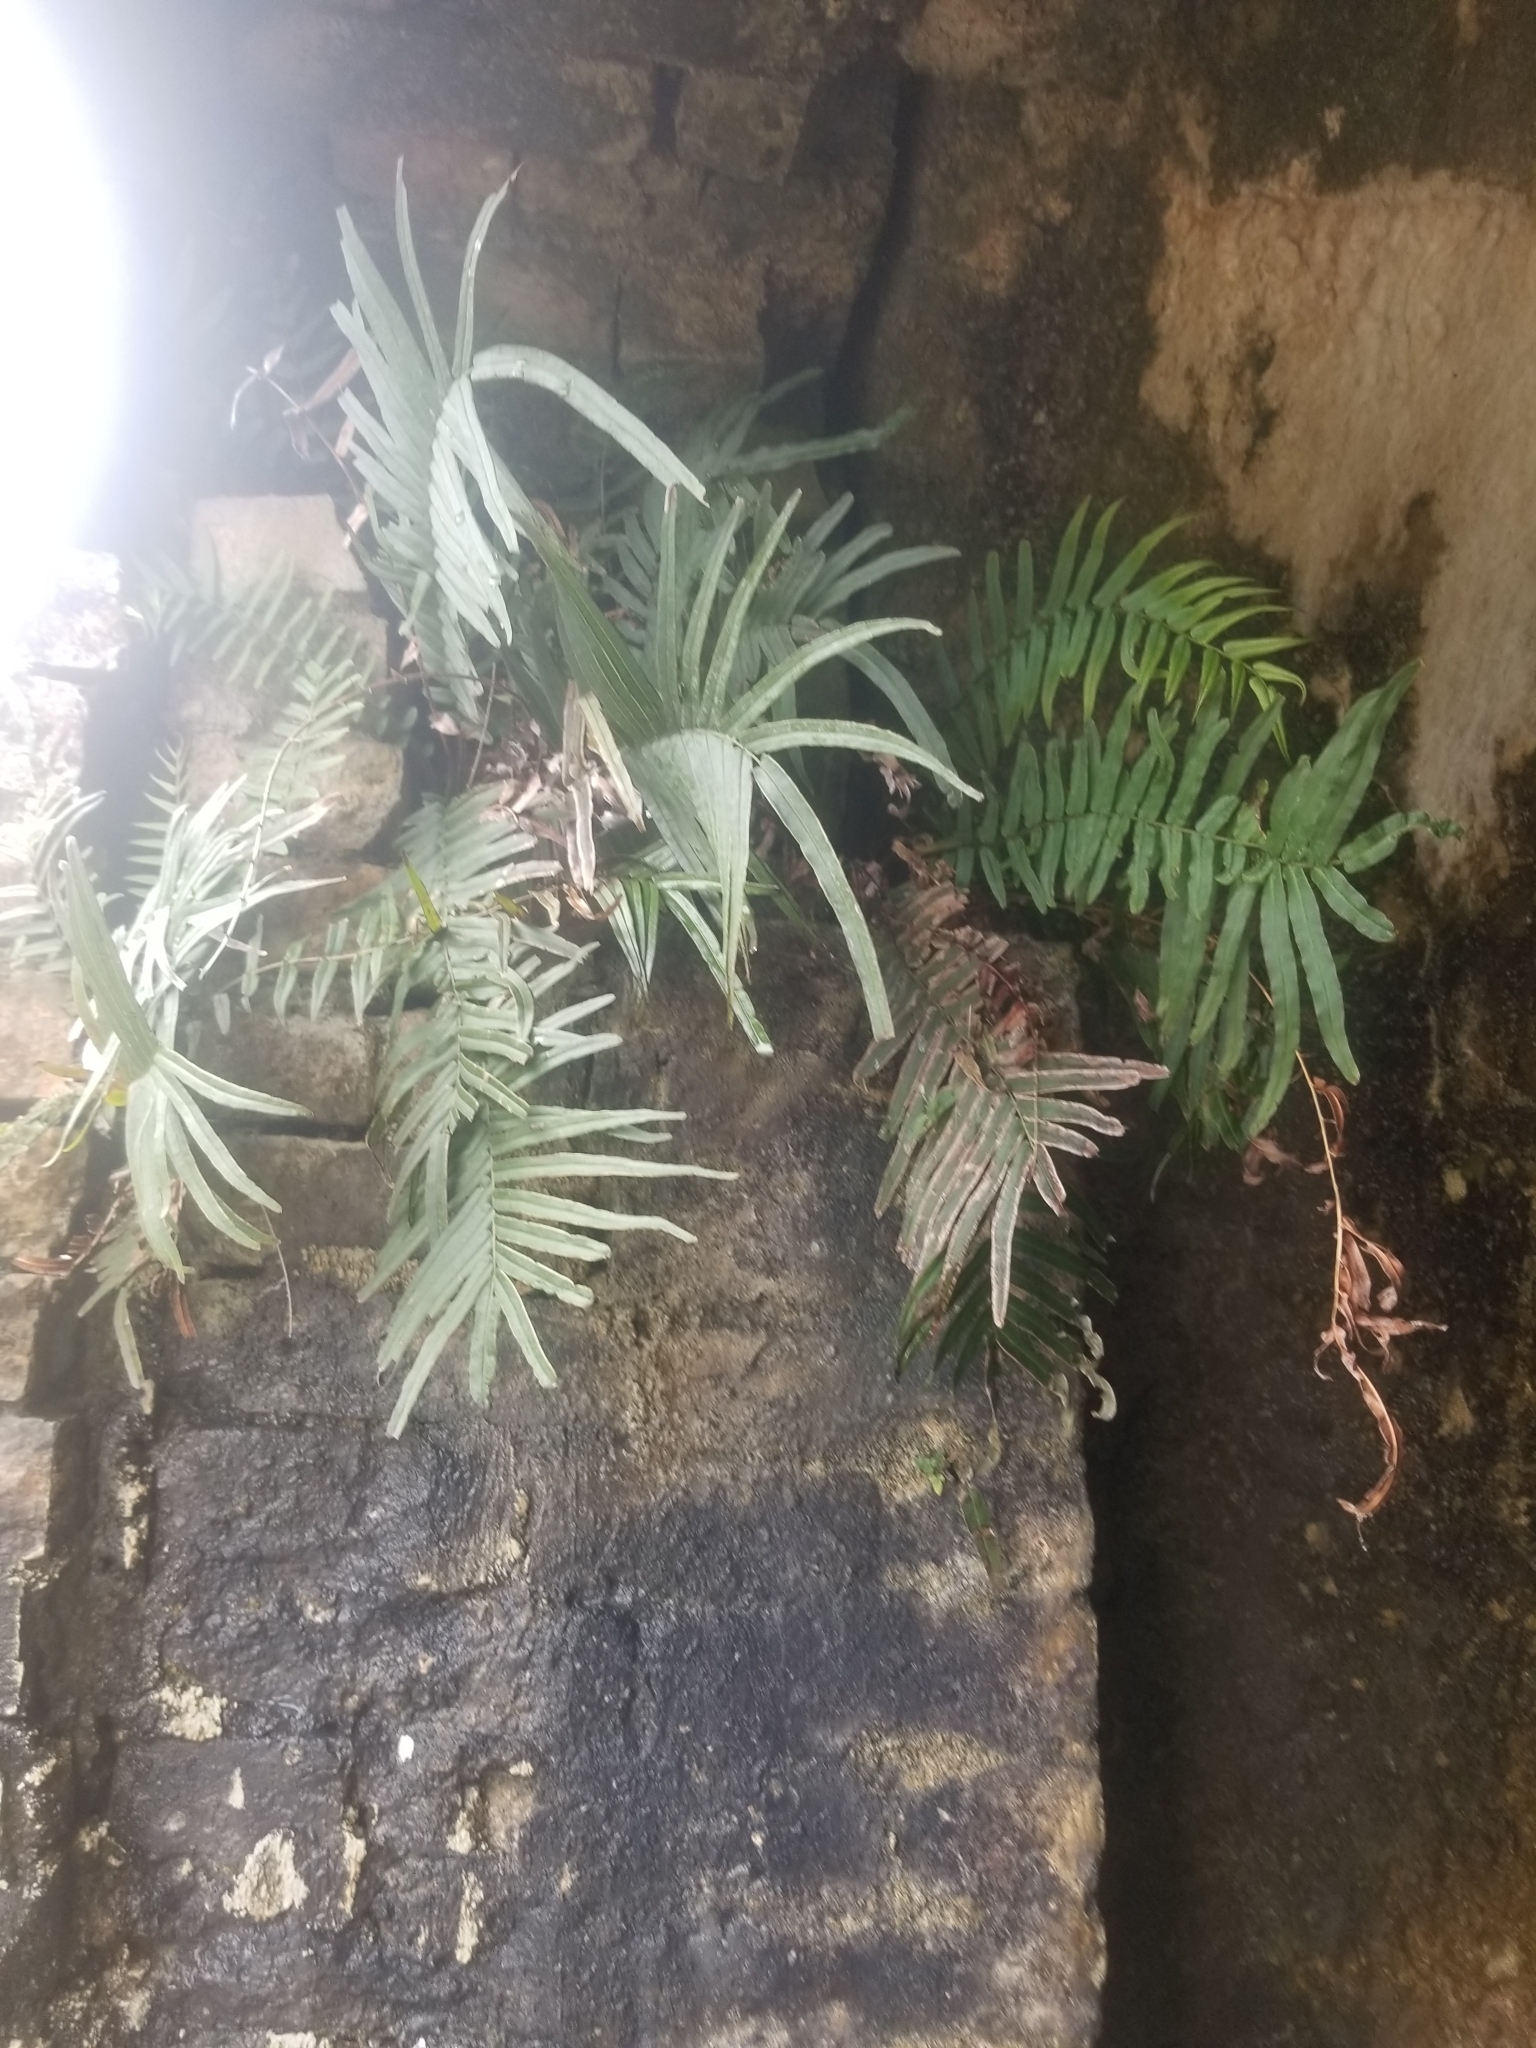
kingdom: Plantae
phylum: Tracheophyta
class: Polypodiopsida
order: Polypodiales
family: Pteridaceae
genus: Pteris
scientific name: Pteris vittata
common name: Ladder brake
